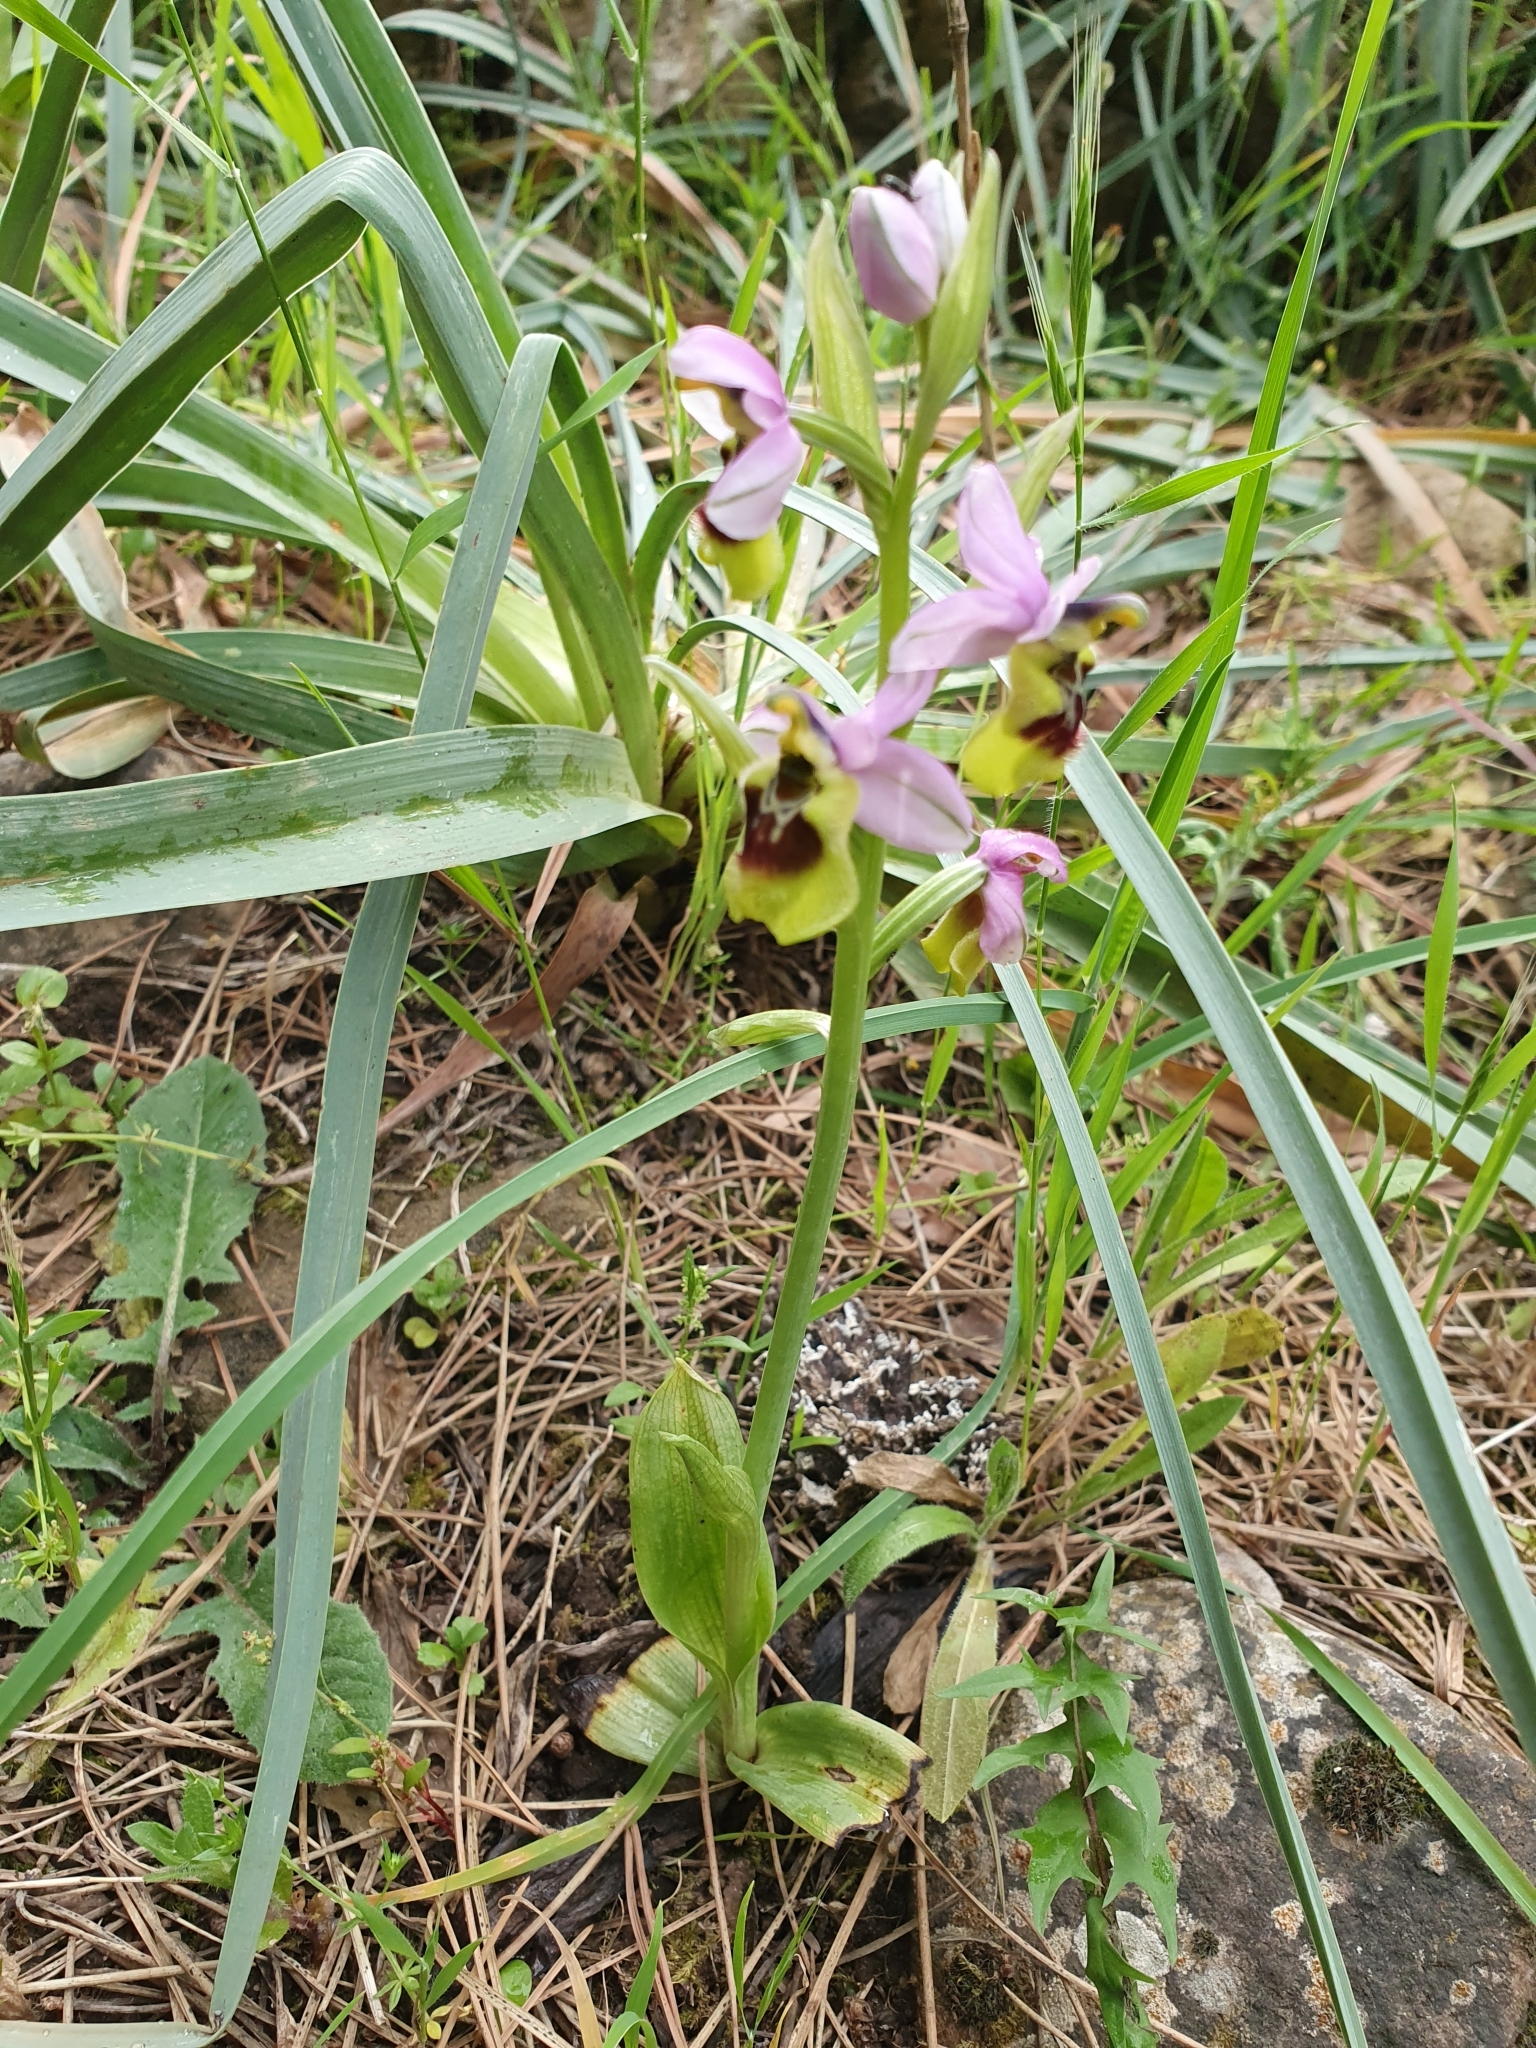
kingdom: Plantae
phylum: Tracheophyta
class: Liliopsida
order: Asparagales
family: Orchidaceae
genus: Ophrys
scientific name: Ophrys tenthredinifera
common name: Sawfly orchid
